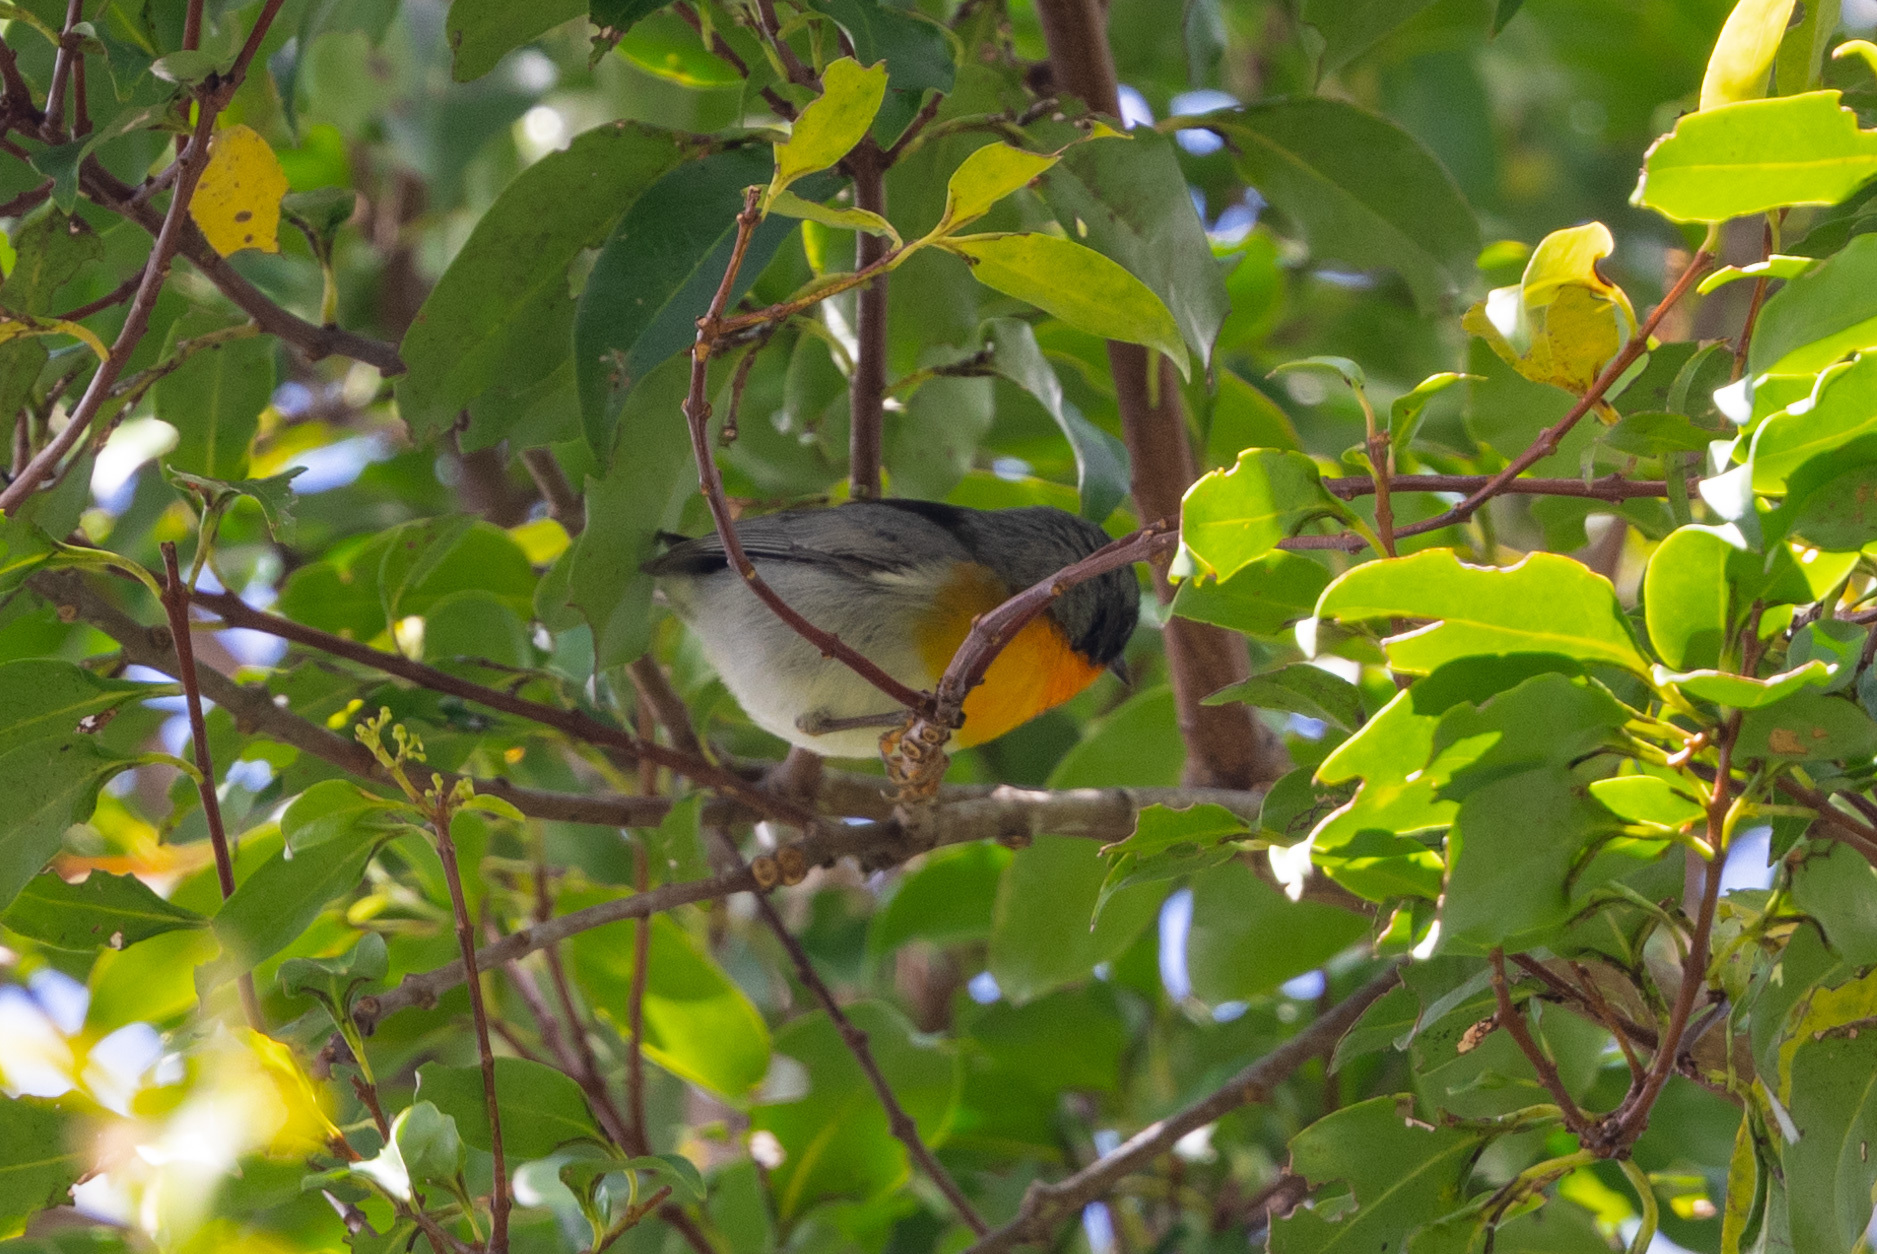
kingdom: Animalia
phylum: Chordata
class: Aves
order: Passeriformes
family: Parulidae
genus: Oreothlypis
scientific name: Oreothlypis gutturalis
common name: Flame-throated warbler
